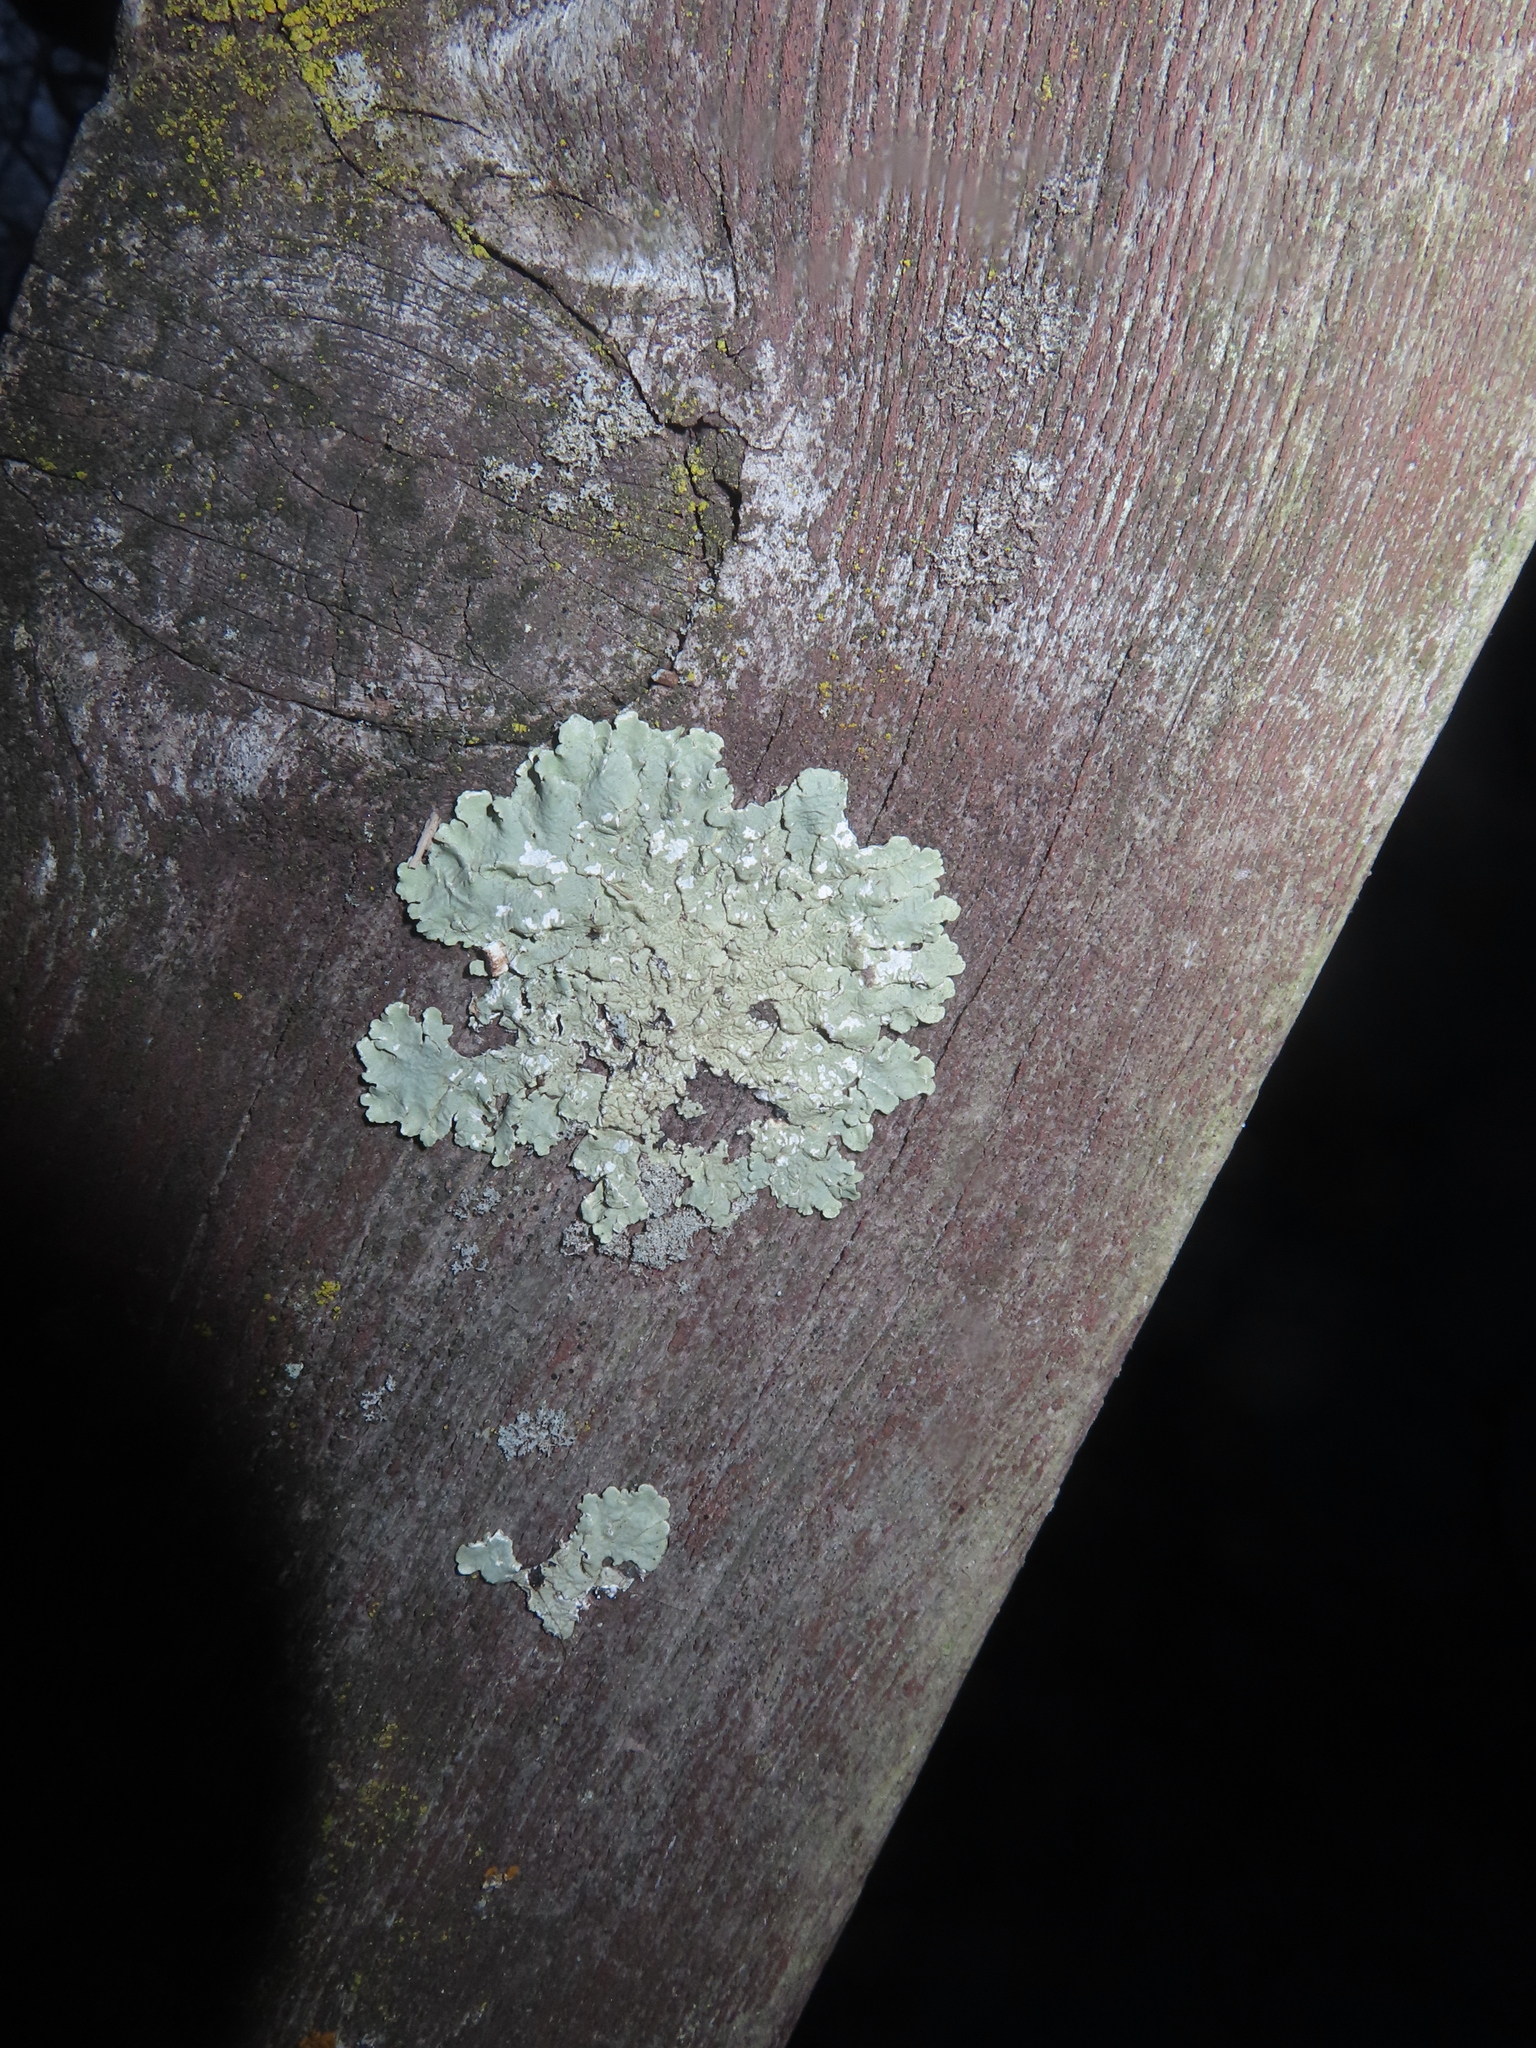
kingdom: Fungi
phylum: Ascomycota
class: Lecanoromycetes
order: Lecanorales
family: Parmeliaceae
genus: Flavoparmelia
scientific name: Flavoparmelia caperata
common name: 40-mile per hour lichen
